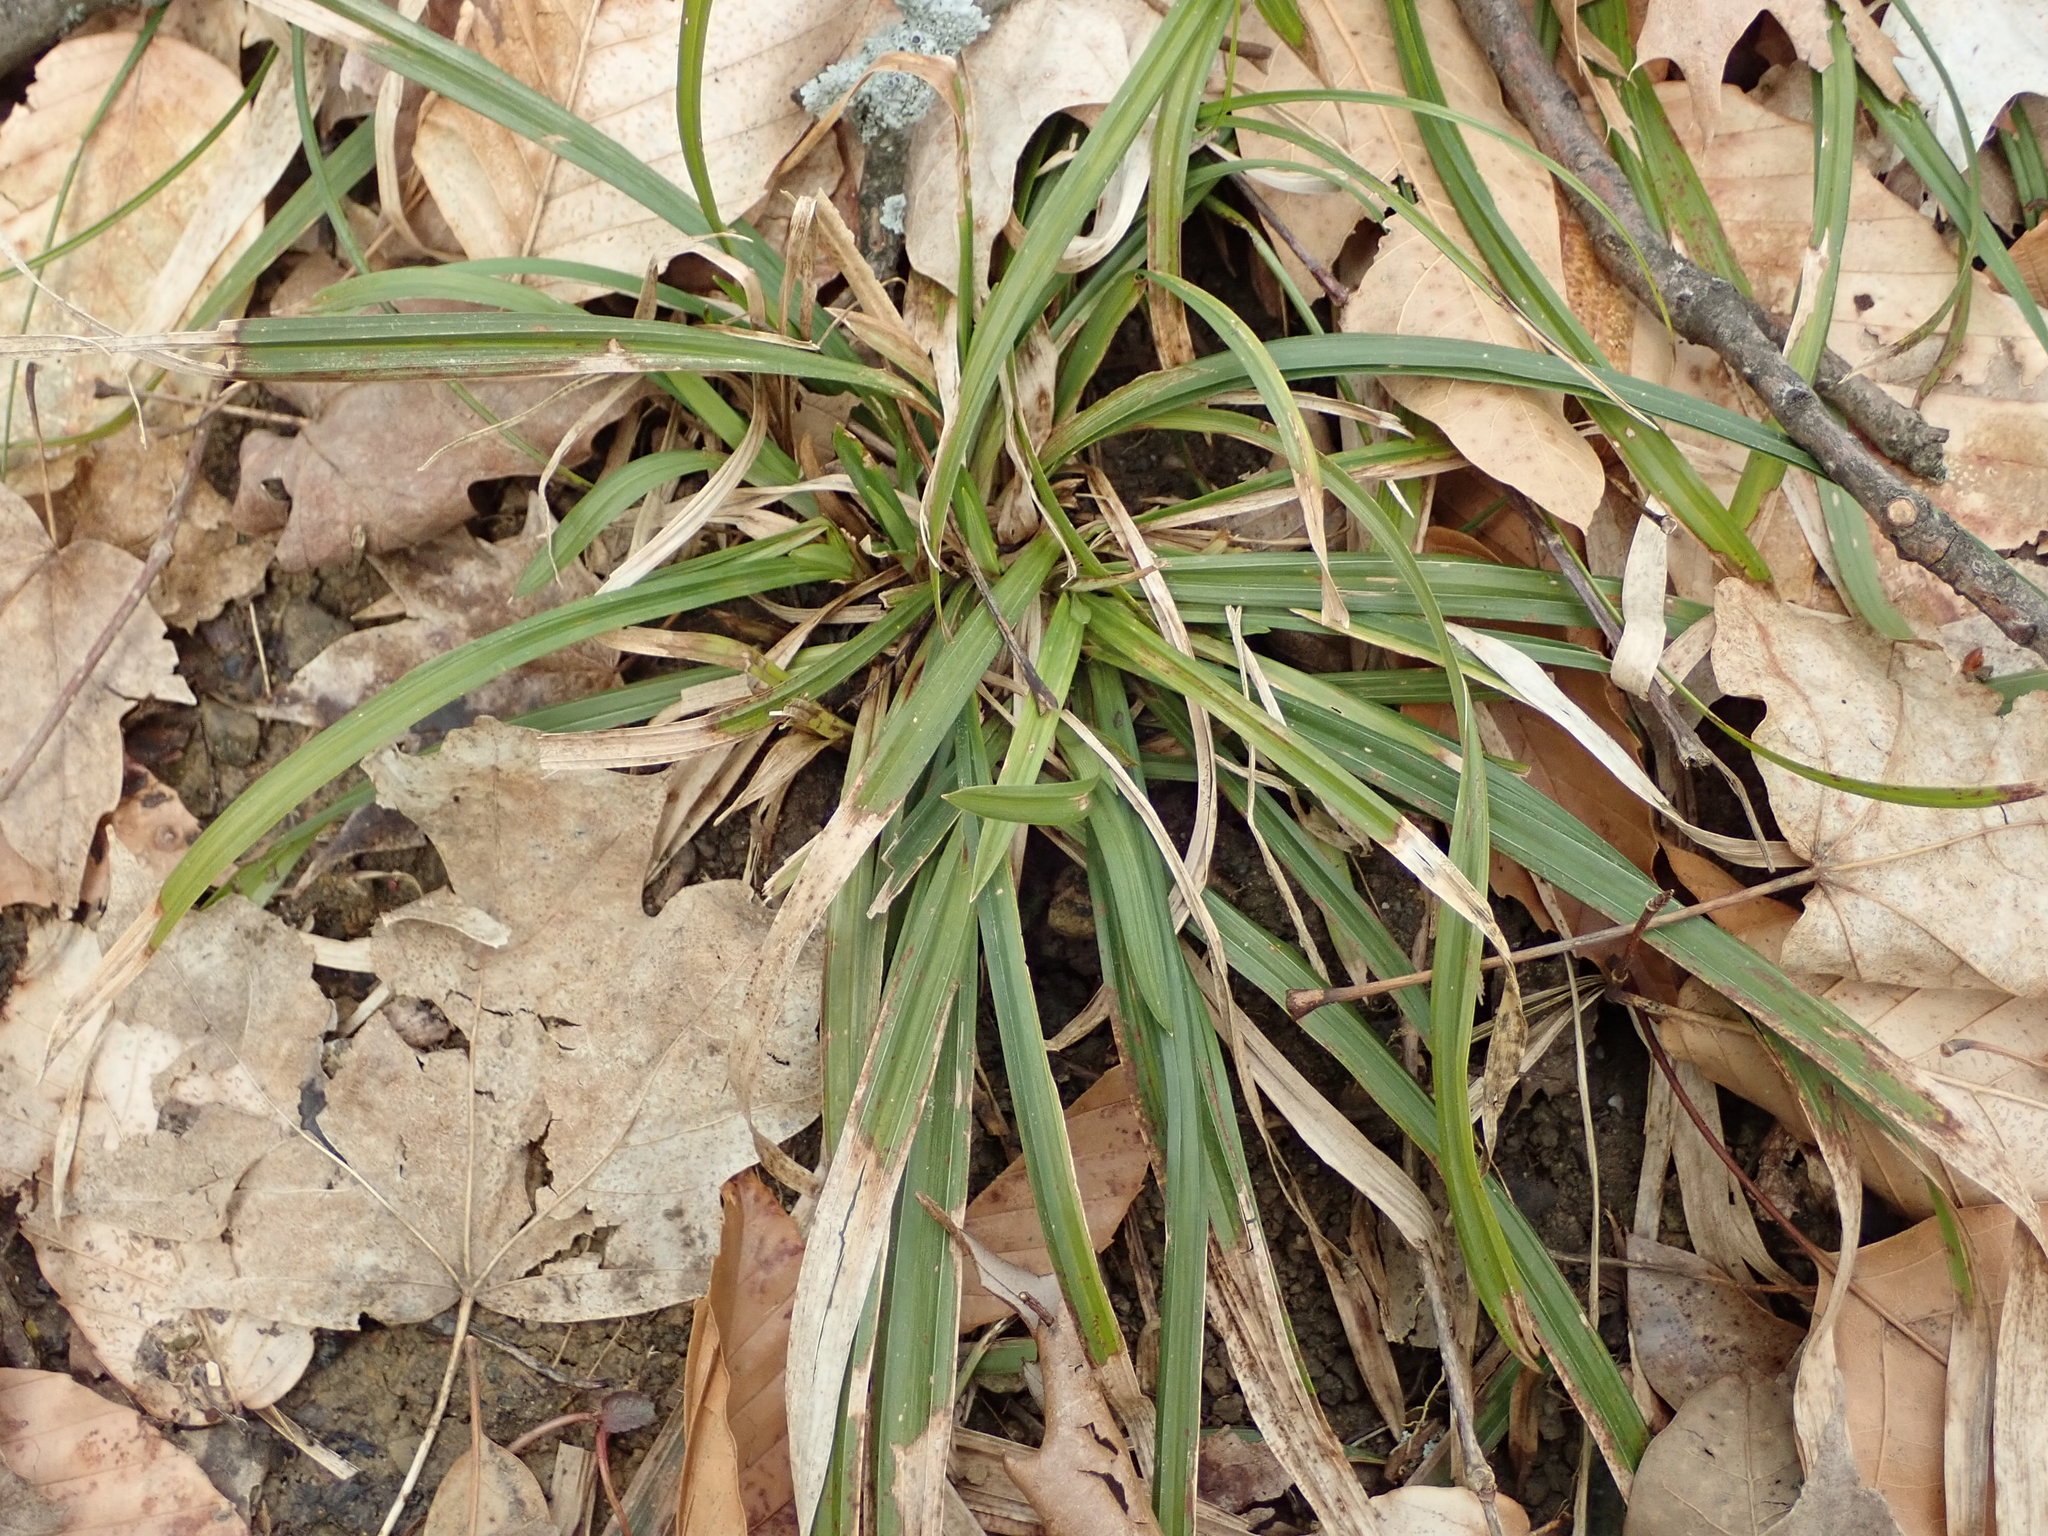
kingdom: Plantae
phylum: Tracheophyta
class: Liliopsida
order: Poales
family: Cyperaceae
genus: Carex
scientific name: Carex
